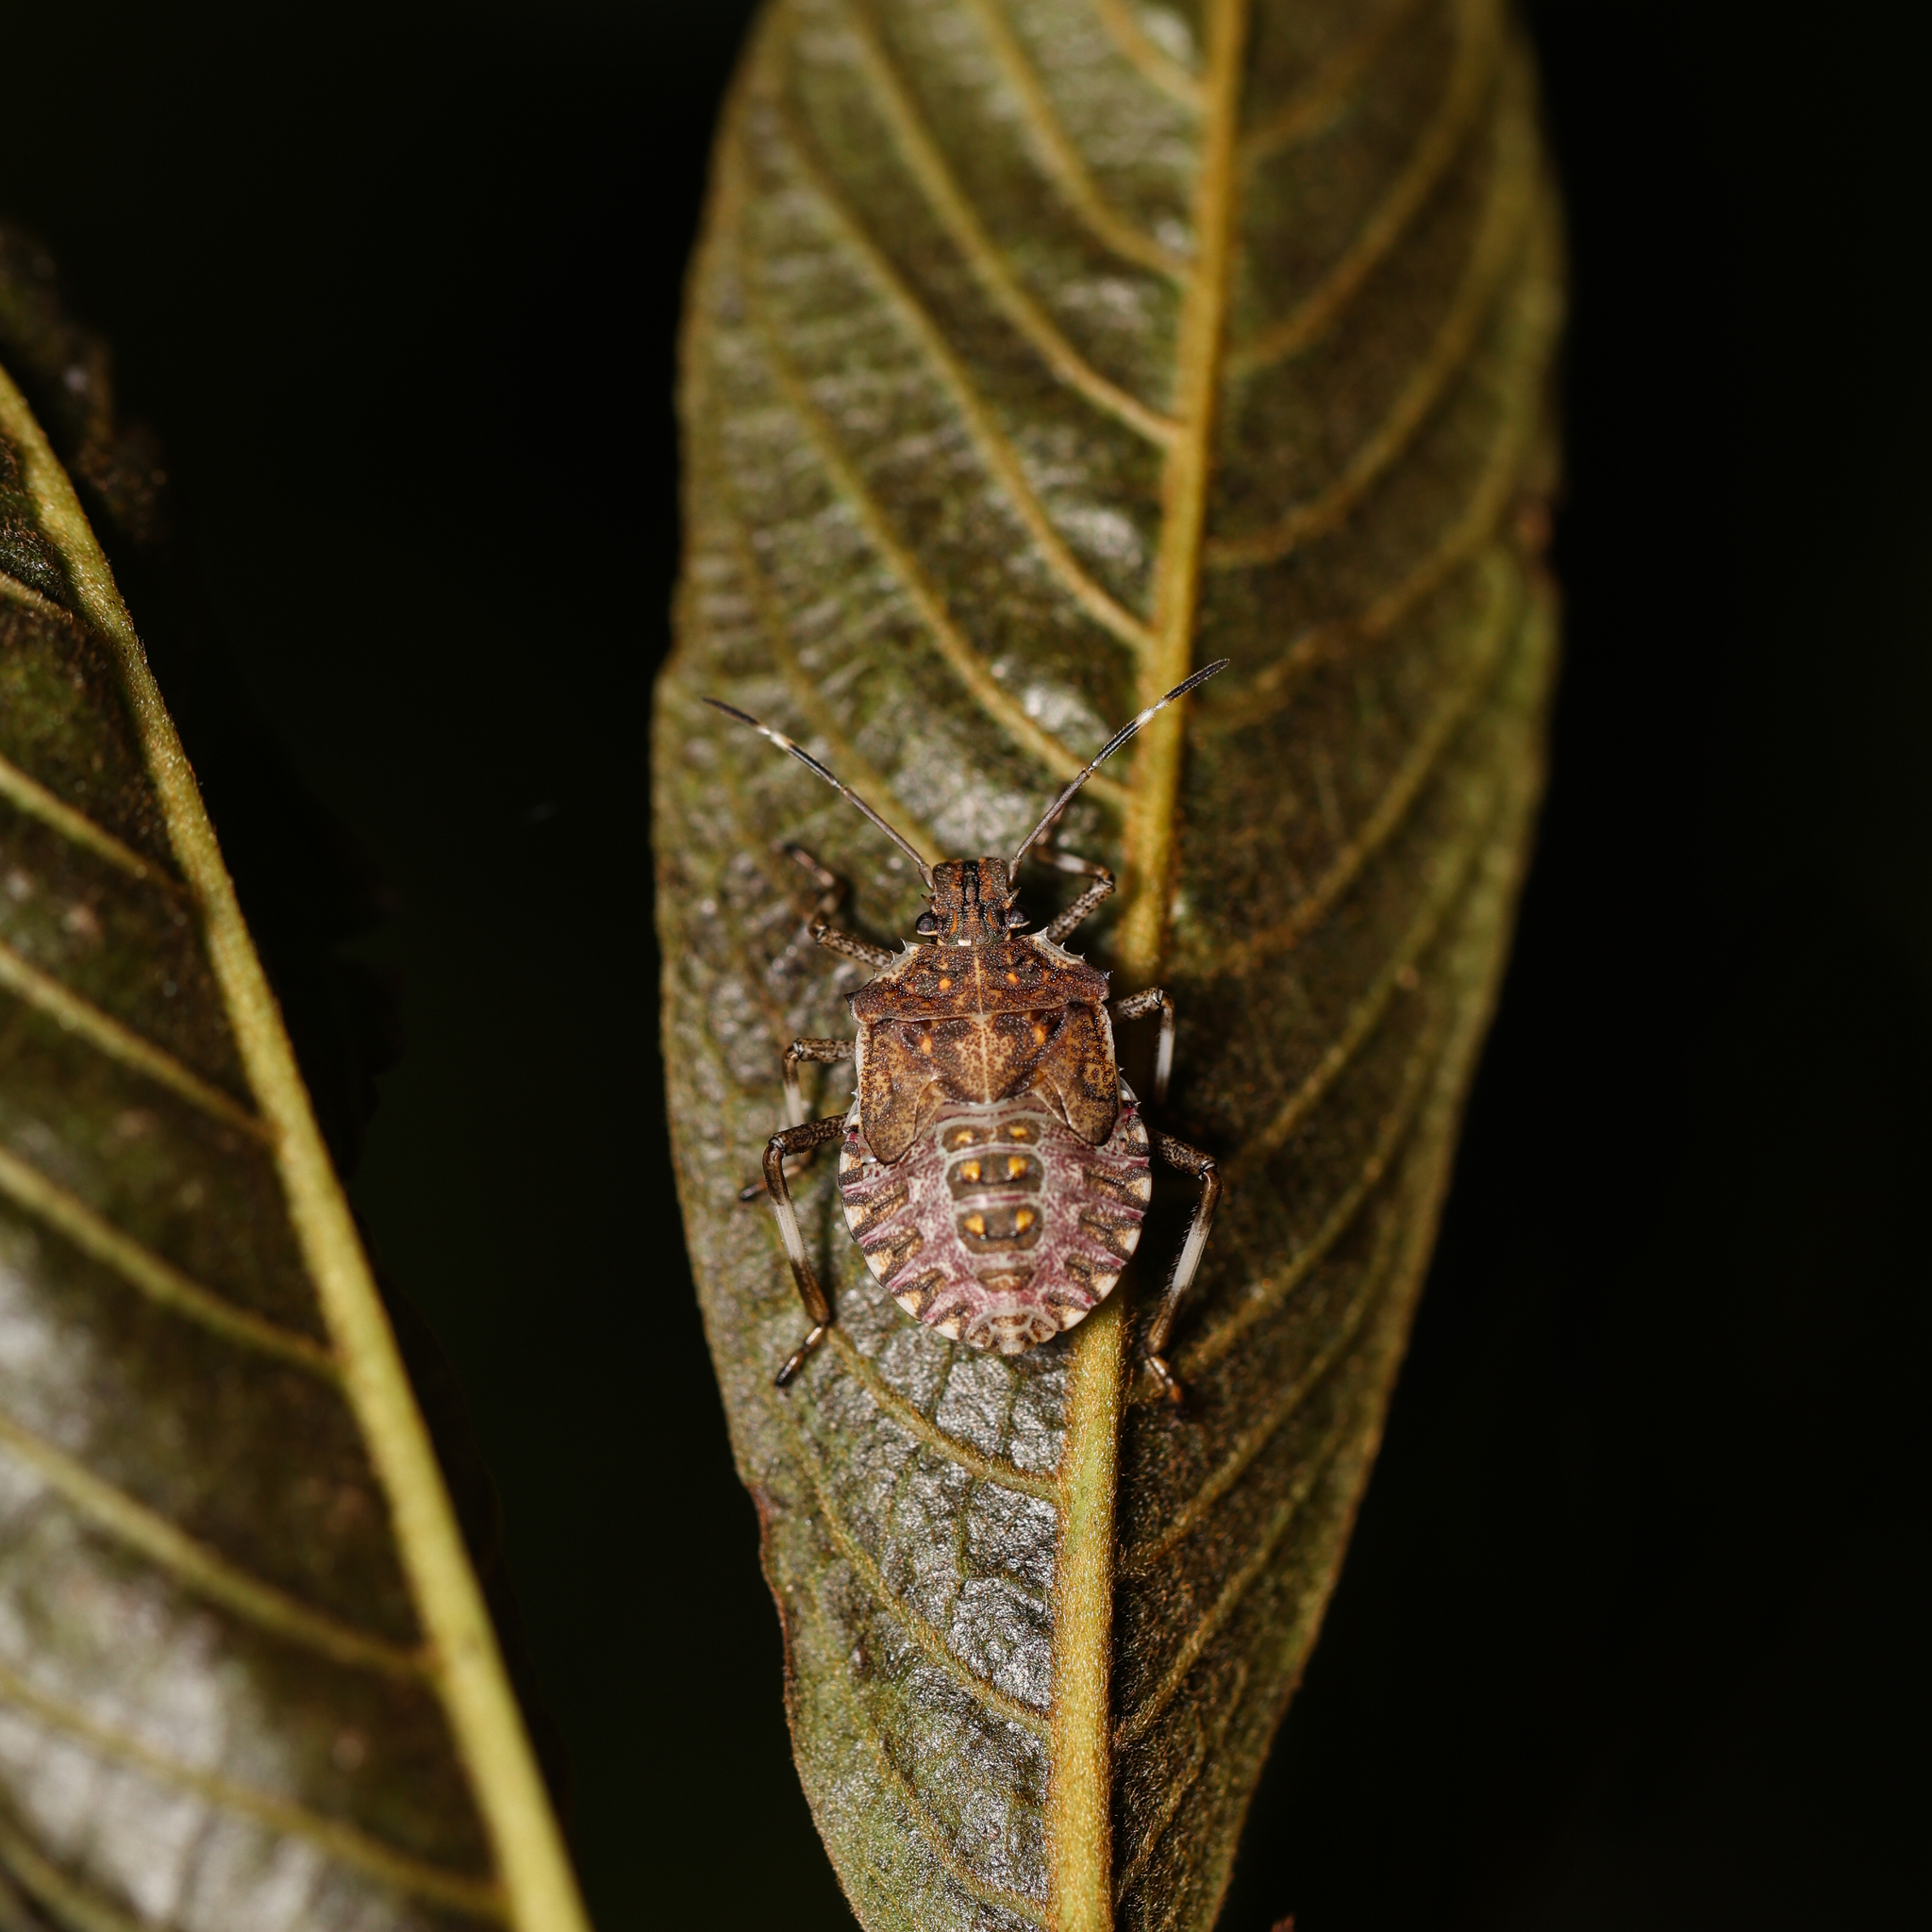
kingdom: Animalia
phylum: Arthropoda
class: Insecta
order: Hemiptera
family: Pentatomidae
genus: Halyomorpha
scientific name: Halyomorpha halys
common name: Brown marmorated stink bug
